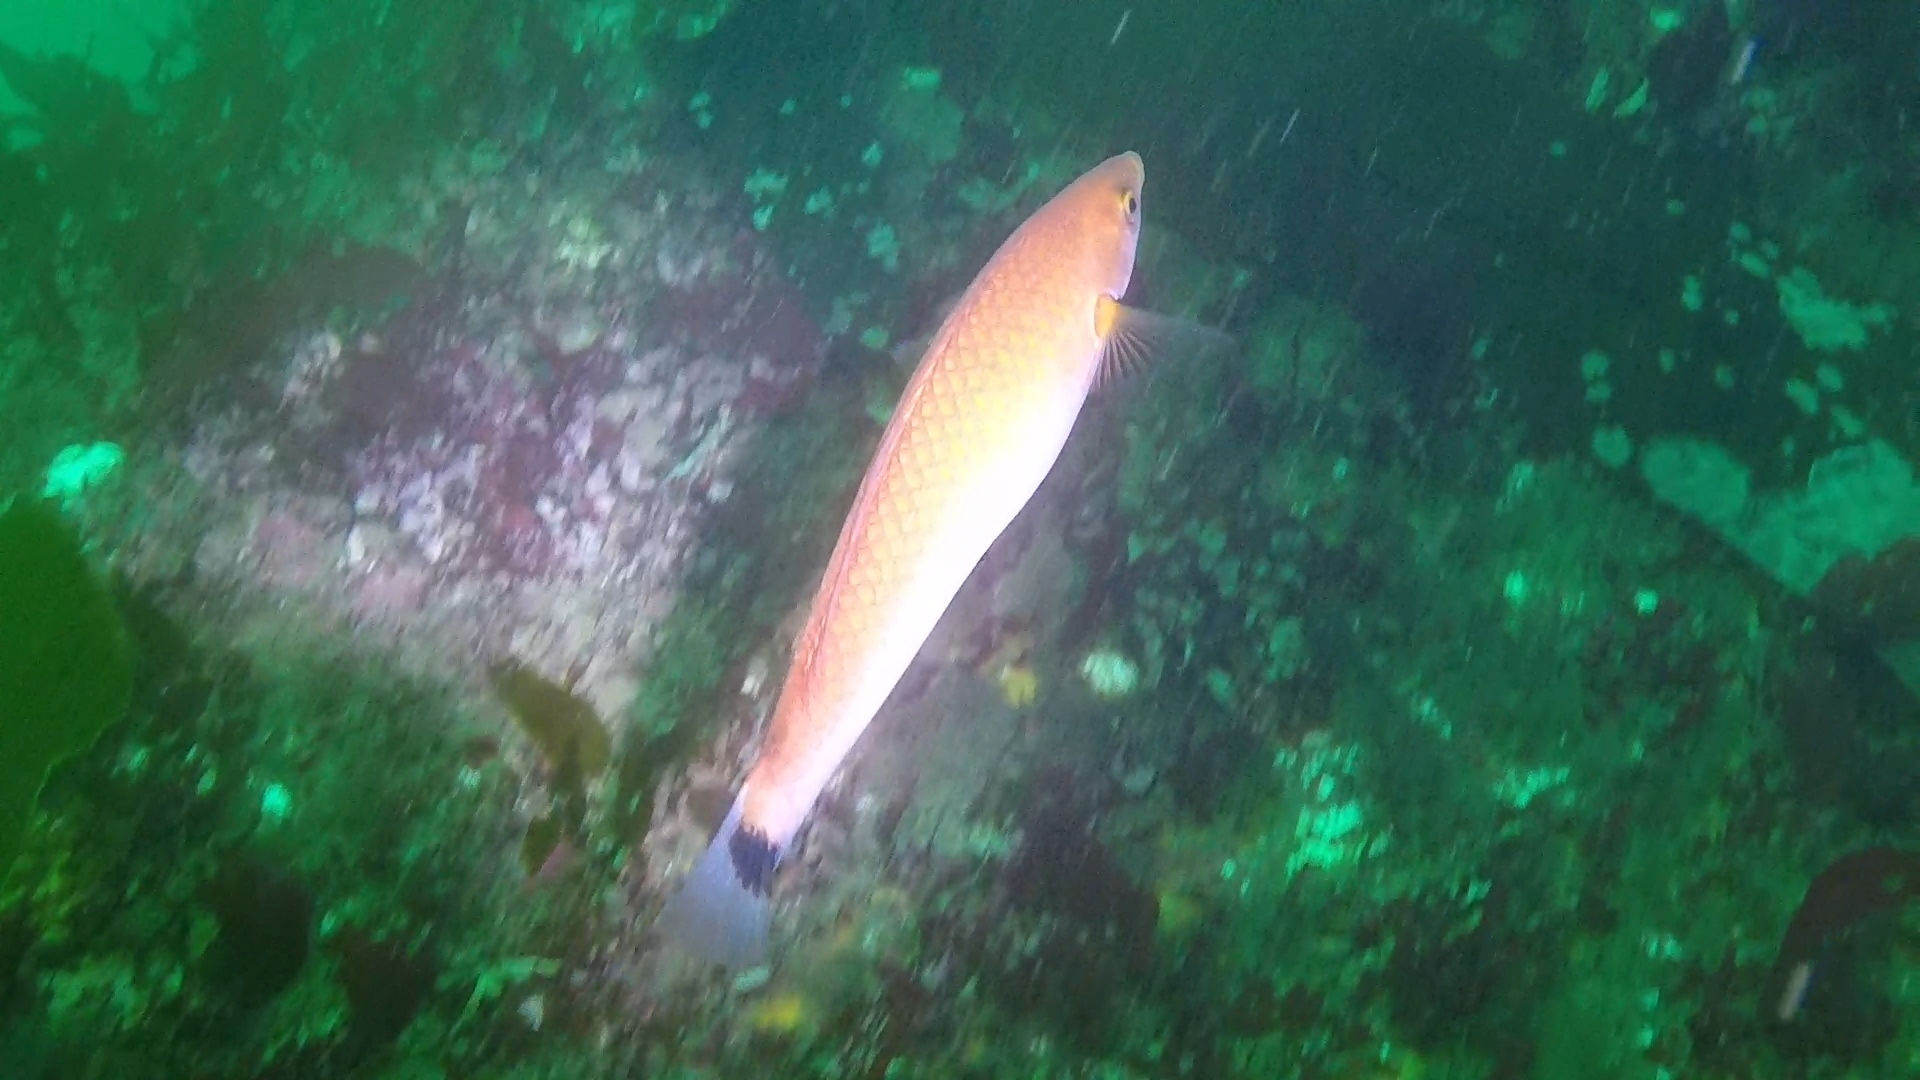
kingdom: Animalia
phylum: Chordata
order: Perciformes
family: Labridae
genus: Oxyjulis
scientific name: Oxyjulis californica
